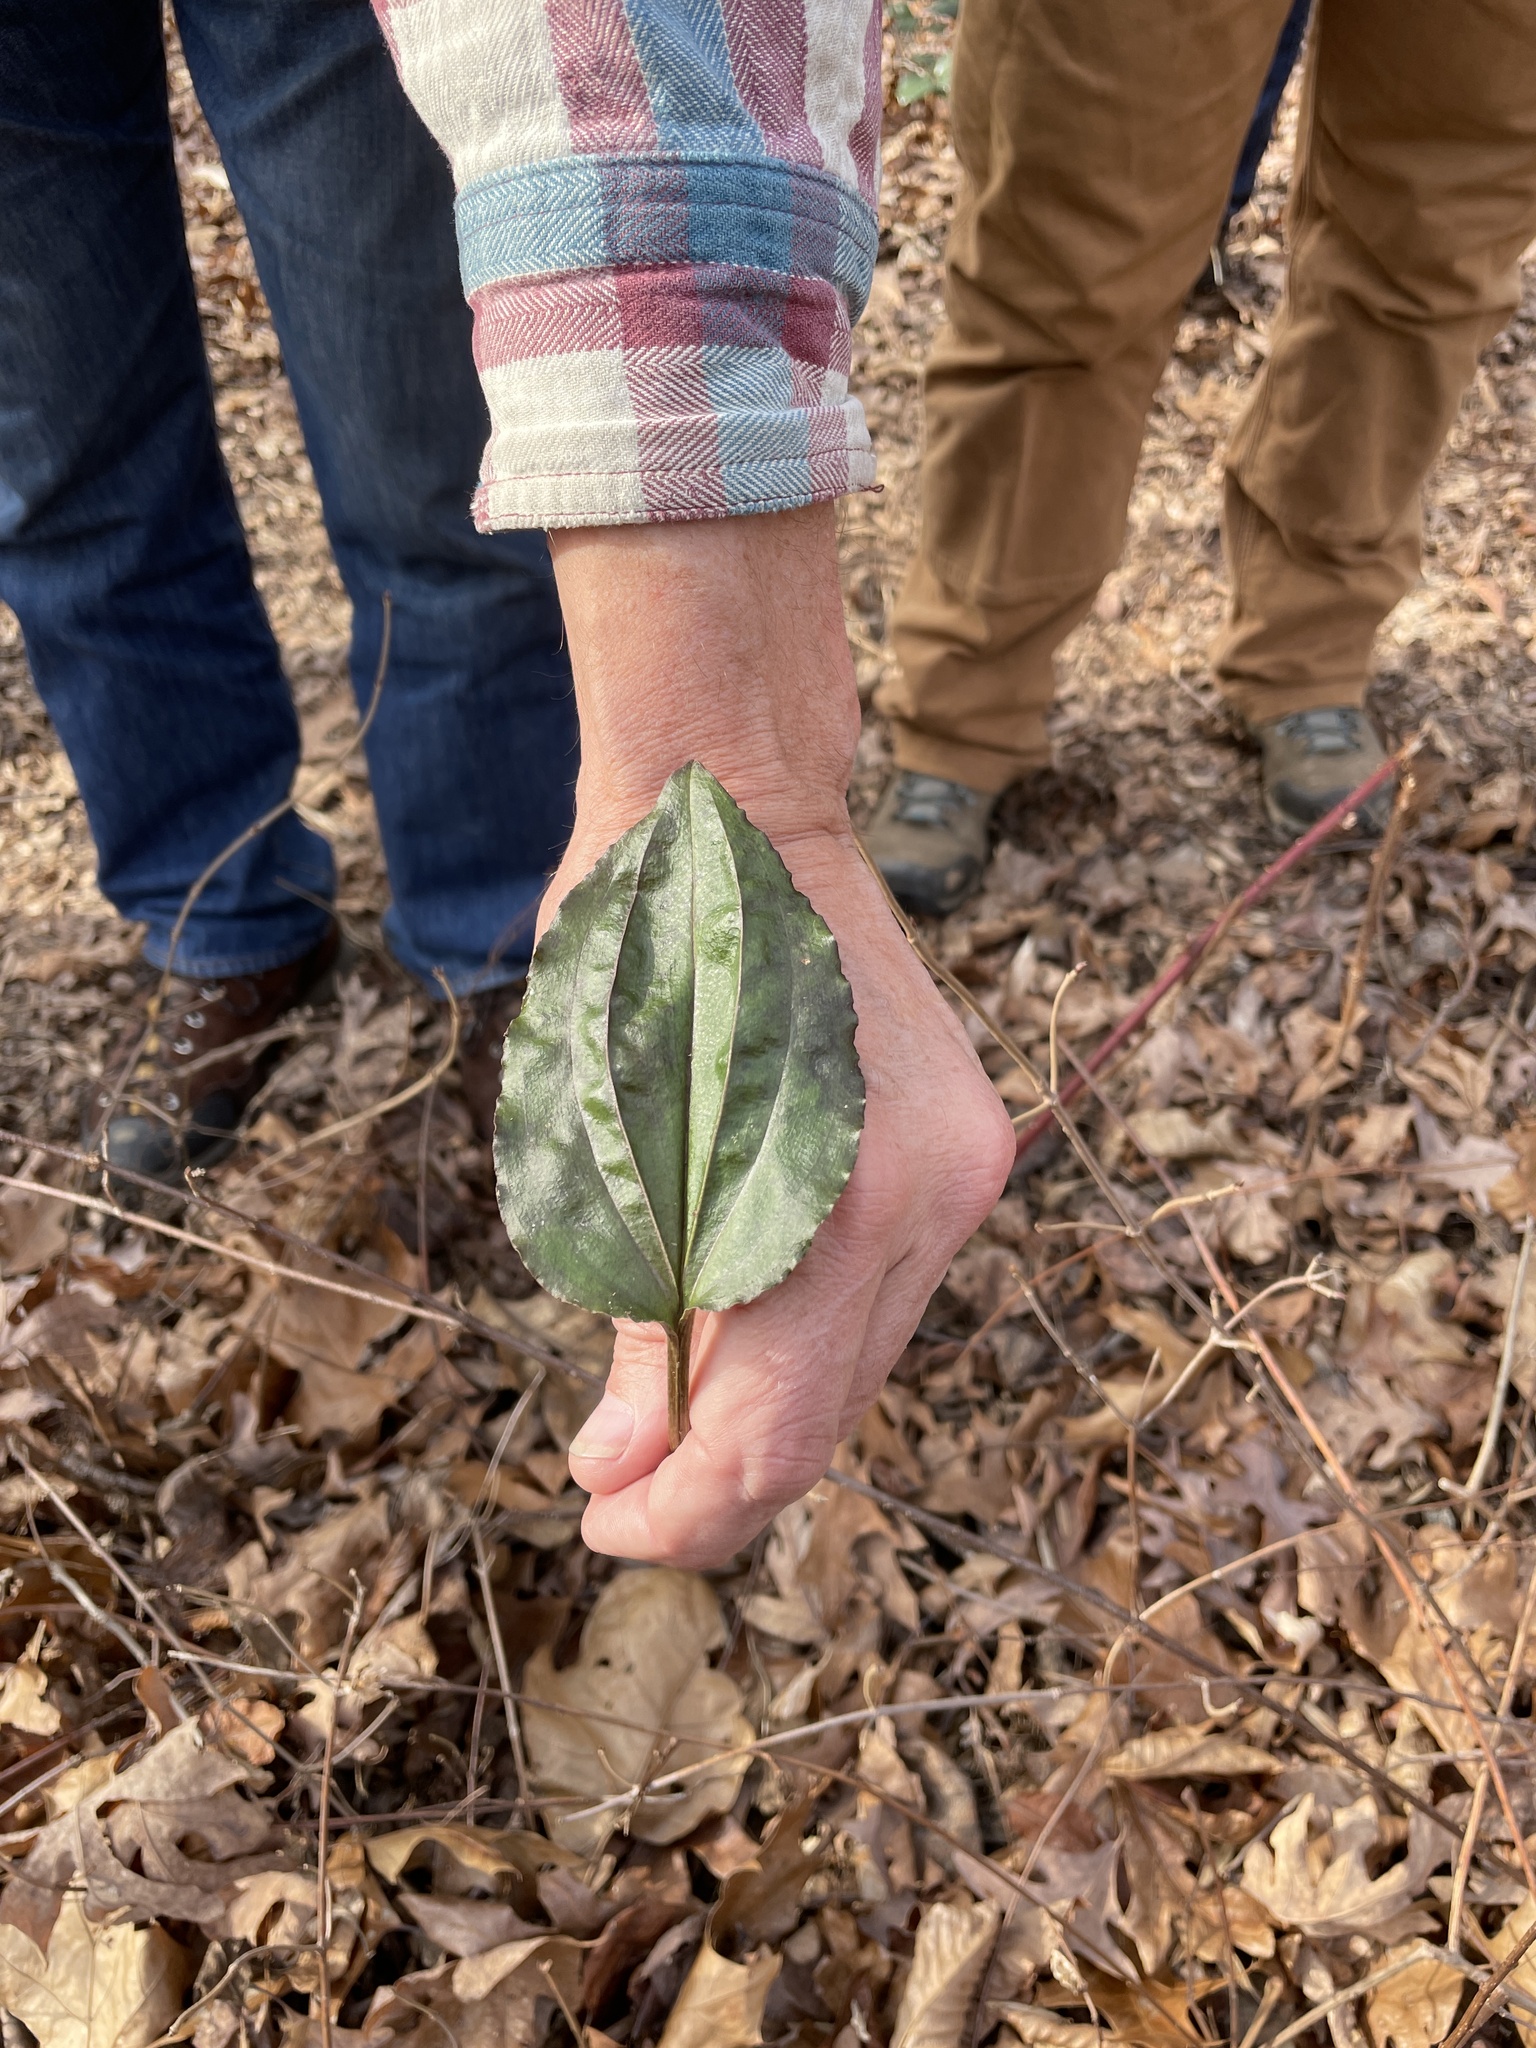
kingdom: Plantae
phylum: Tracheophyta
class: Liliopsida
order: Asparagales
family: Orchidaceae
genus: Tipularia
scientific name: Tipularia discolor
